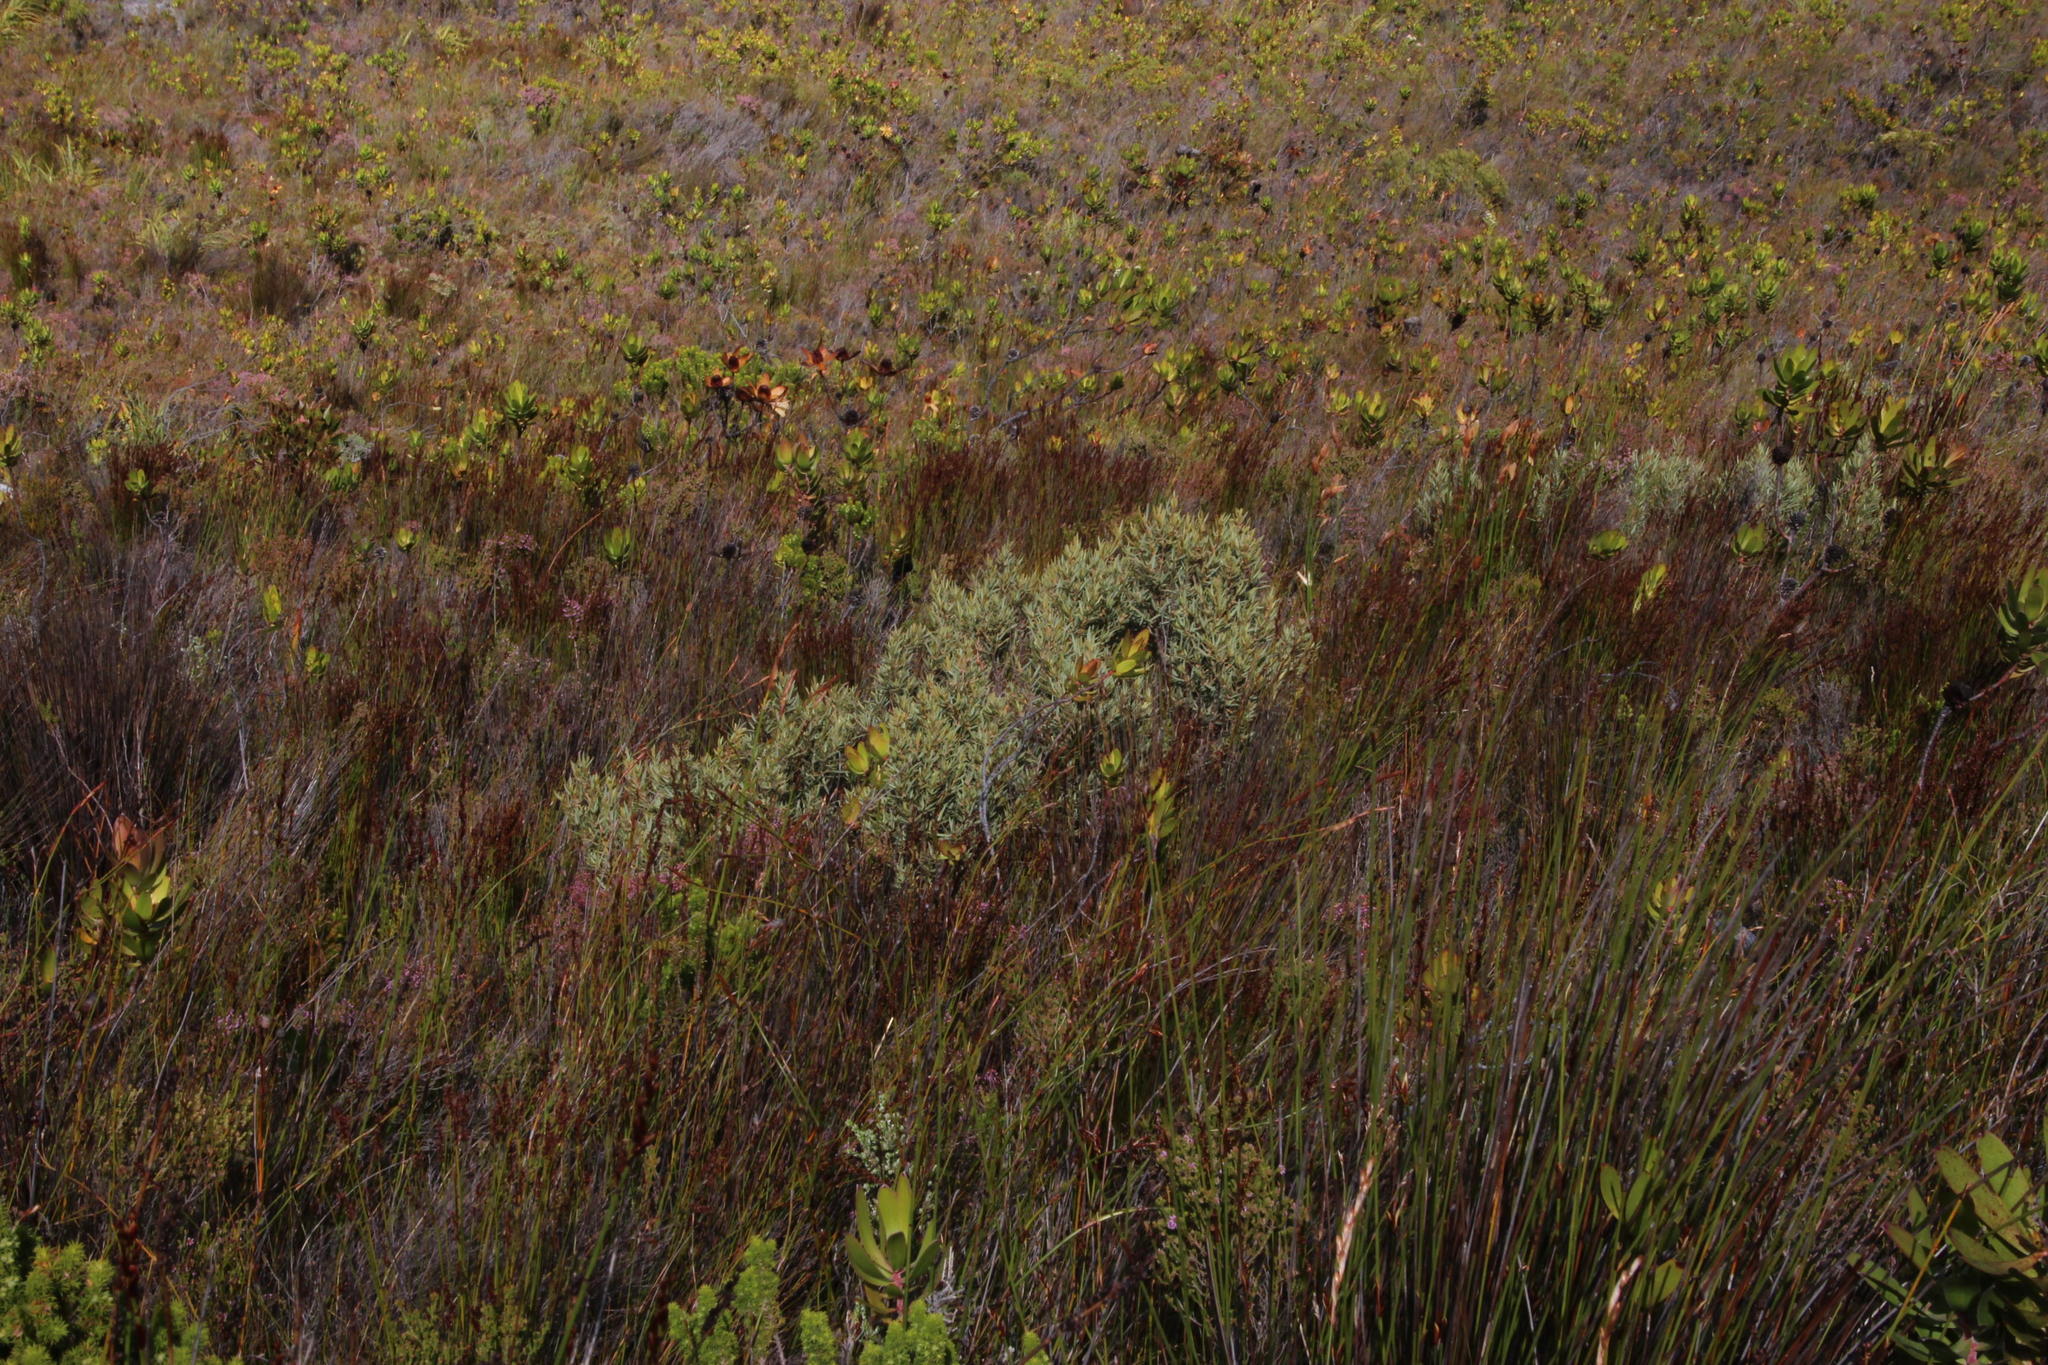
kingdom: Plantae
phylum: Tracheophyta
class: Magnoliopsida
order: Cornales
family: Grubbiaceae
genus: Grubbia
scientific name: Grubbia tomentosa
